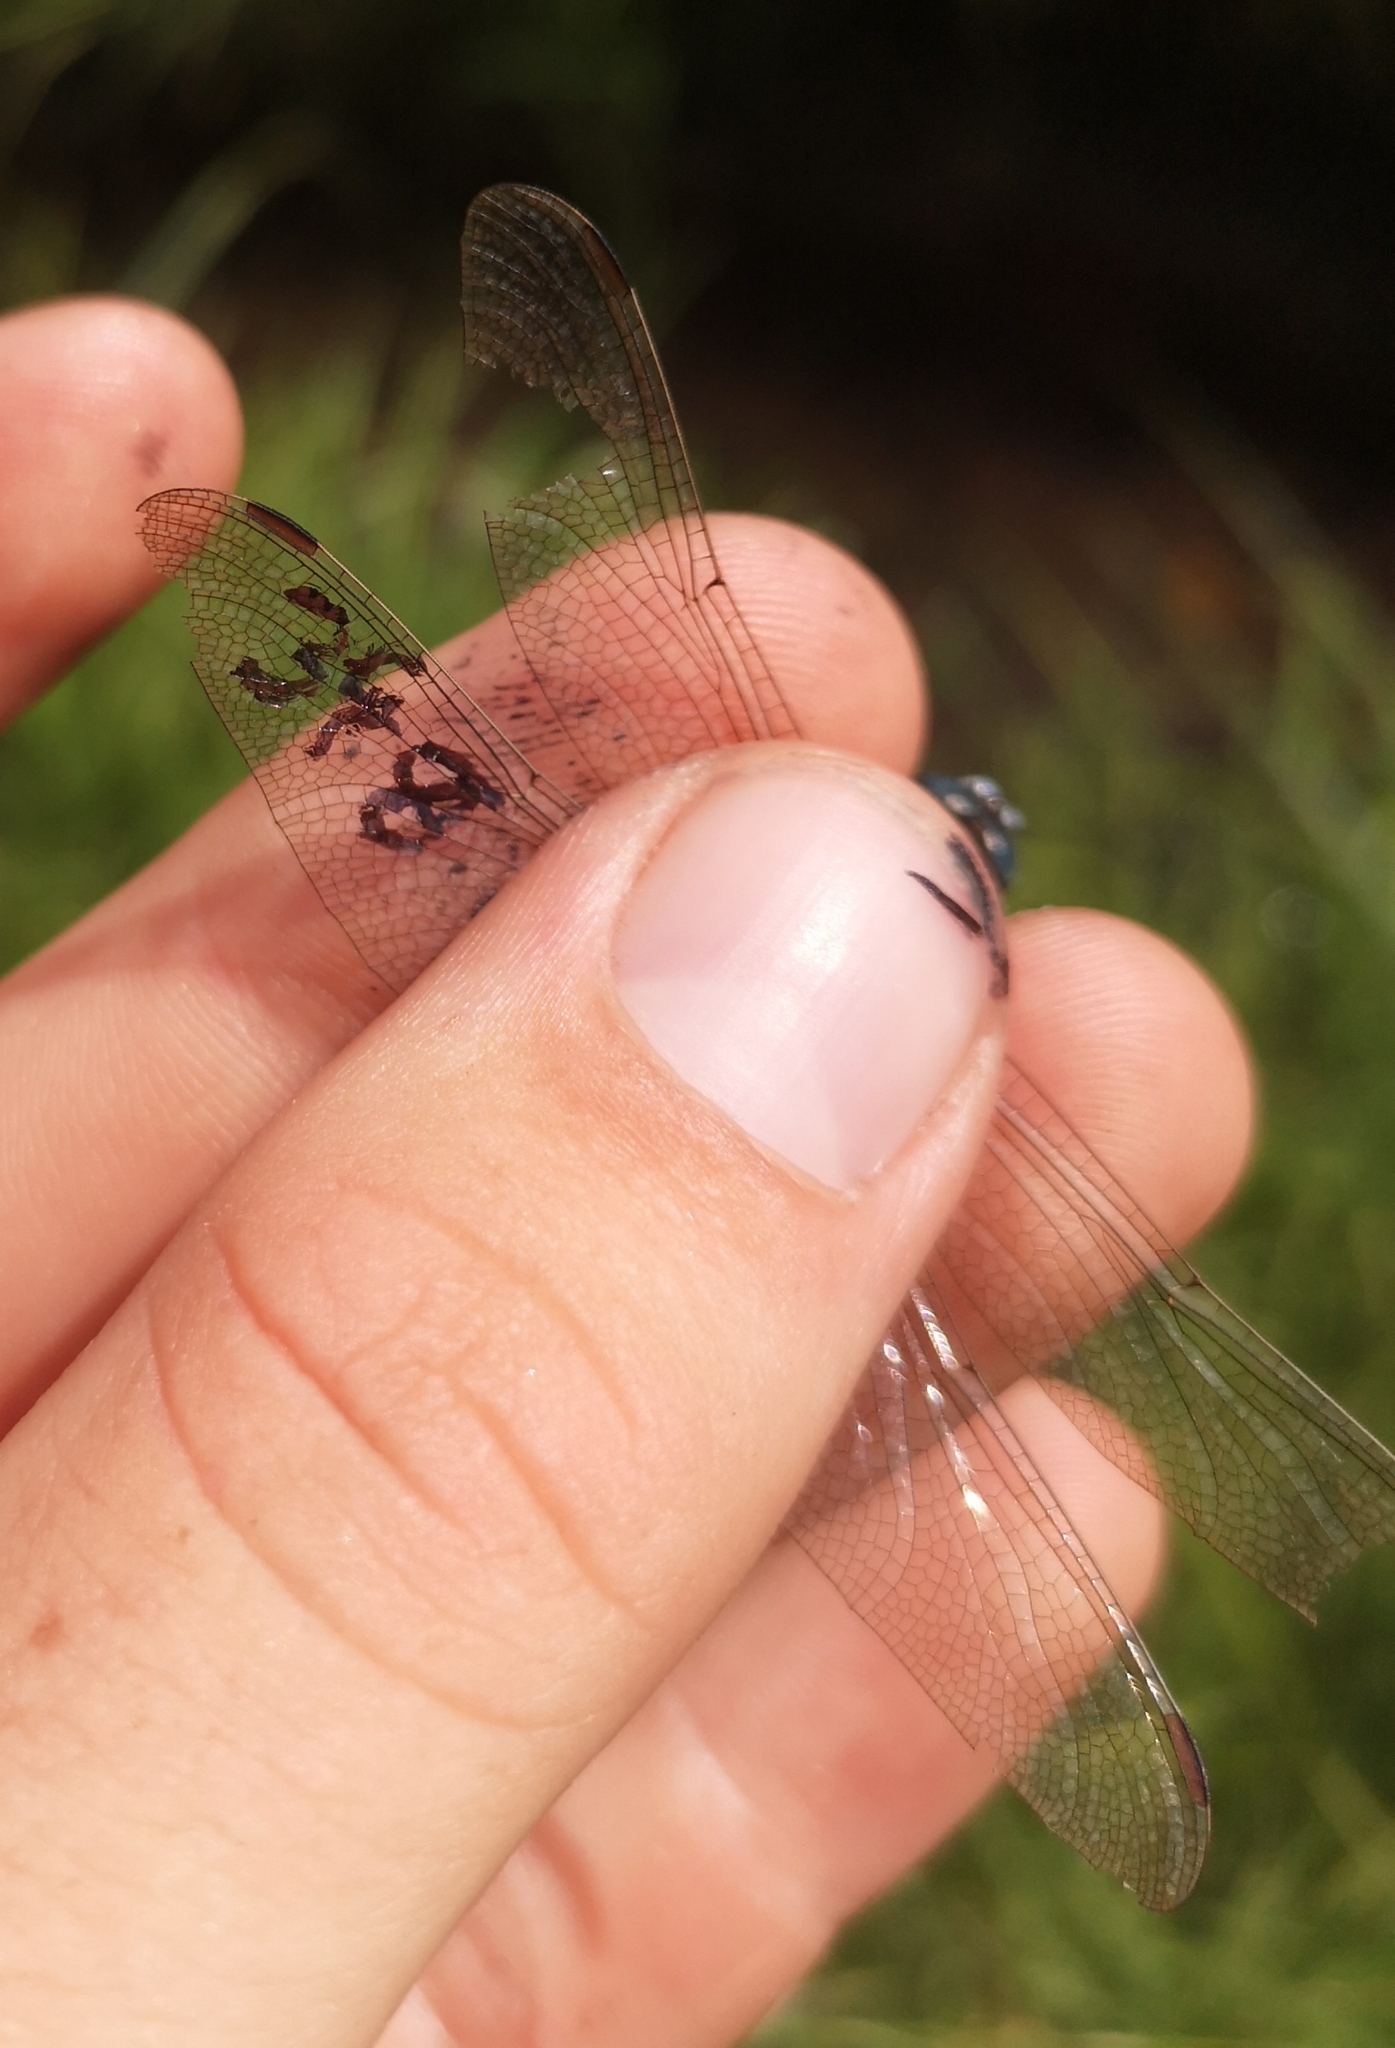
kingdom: Animalia
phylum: Arthropoda
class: Insecta
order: Odonata
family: Libellulidae
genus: Orthetrum
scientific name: Orthetrum brunneum
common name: Southern skimmer
